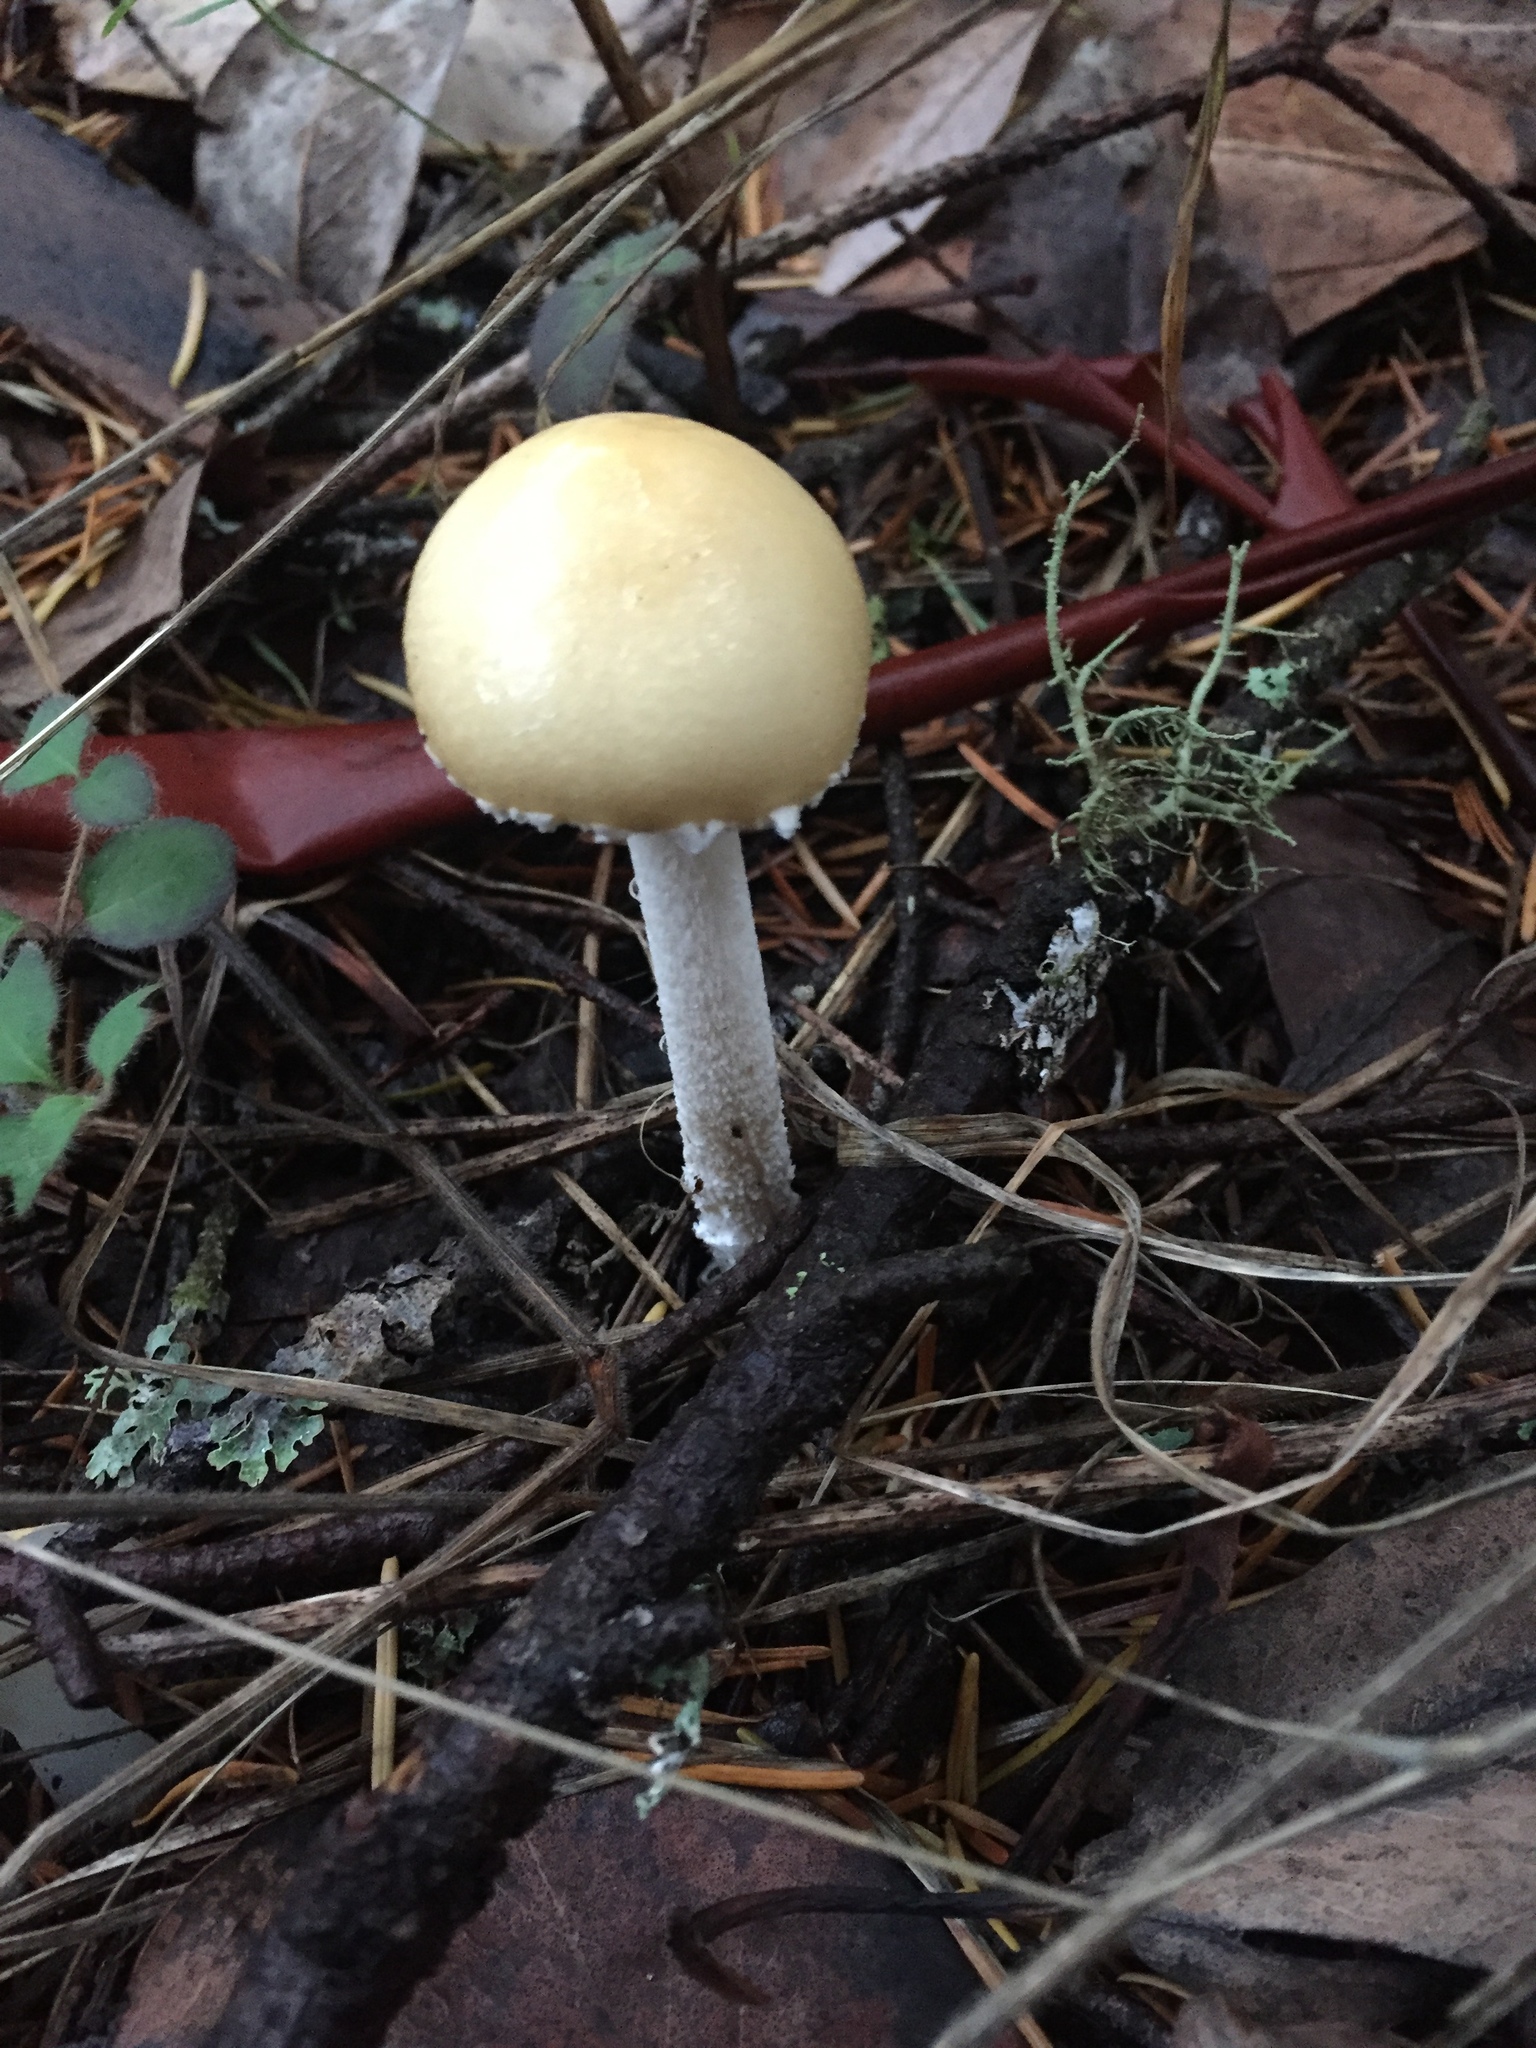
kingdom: Fungi
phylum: Basidiomycota
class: Agaricomycetes
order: Agaricales
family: Strophariaceae
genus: Stropharia
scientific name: Stropharia ambigua
